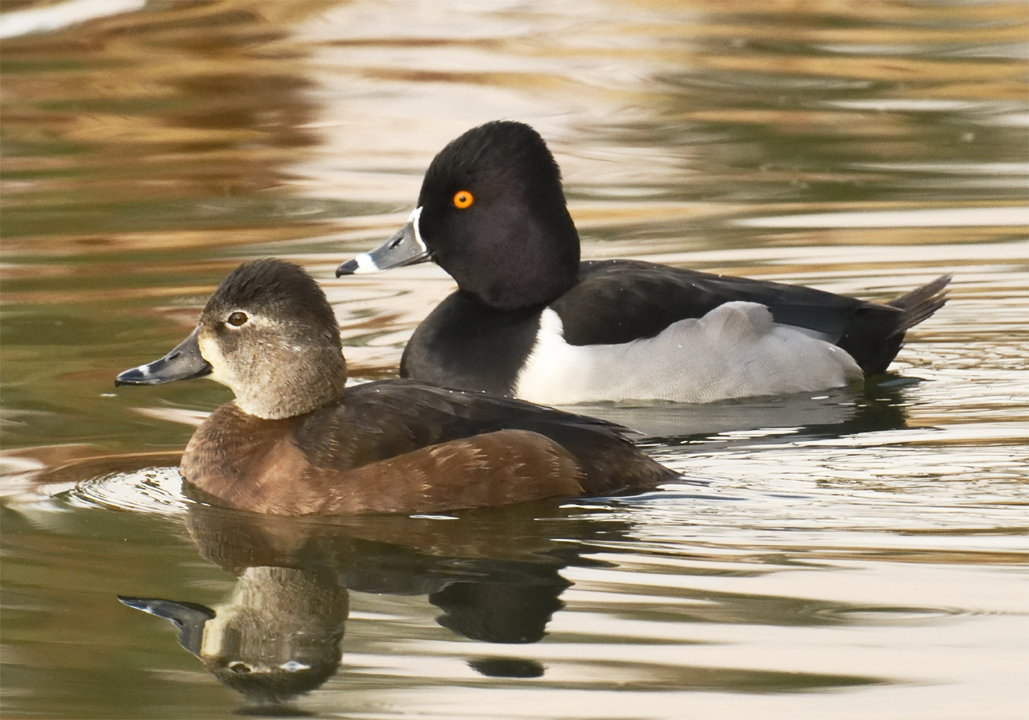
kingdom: Animalia
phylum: Chordata
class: Aves
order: Anseriformes
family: Anatidae
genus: Aythya
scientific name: Aythya collaris
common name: Ring-necked duck
